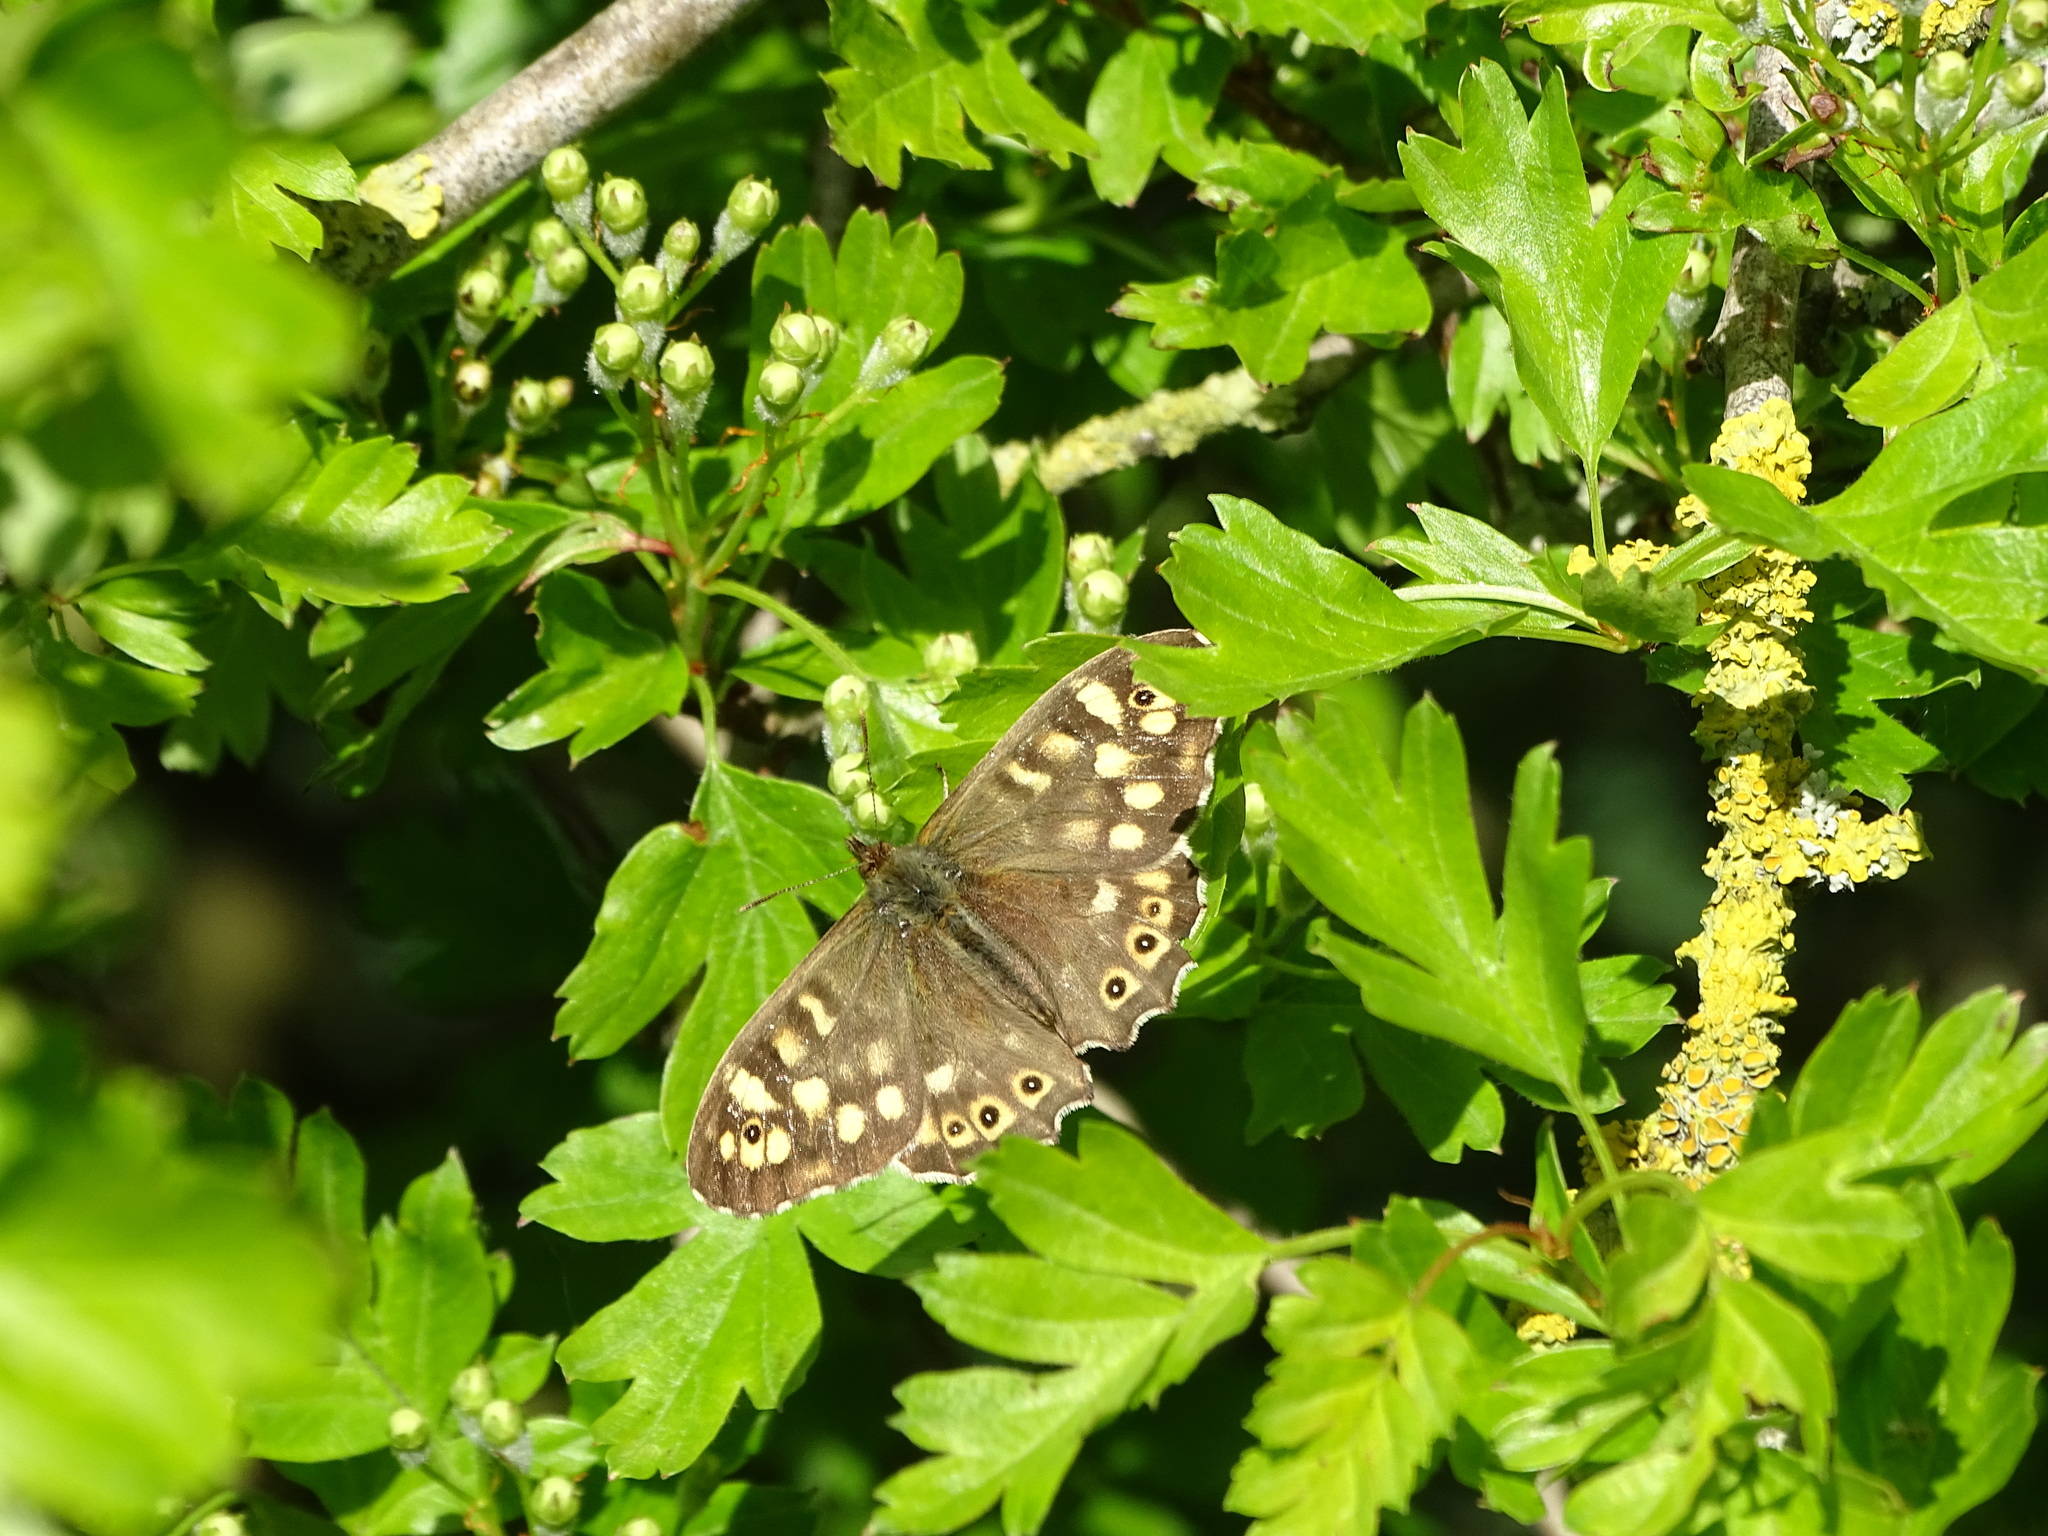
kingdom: Animalia
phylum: Arthropoda
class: Insecta
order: Lepidoptera
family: Nymphalidae
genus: Pararge
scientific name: Pararge aegeria
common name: Speckled wood
